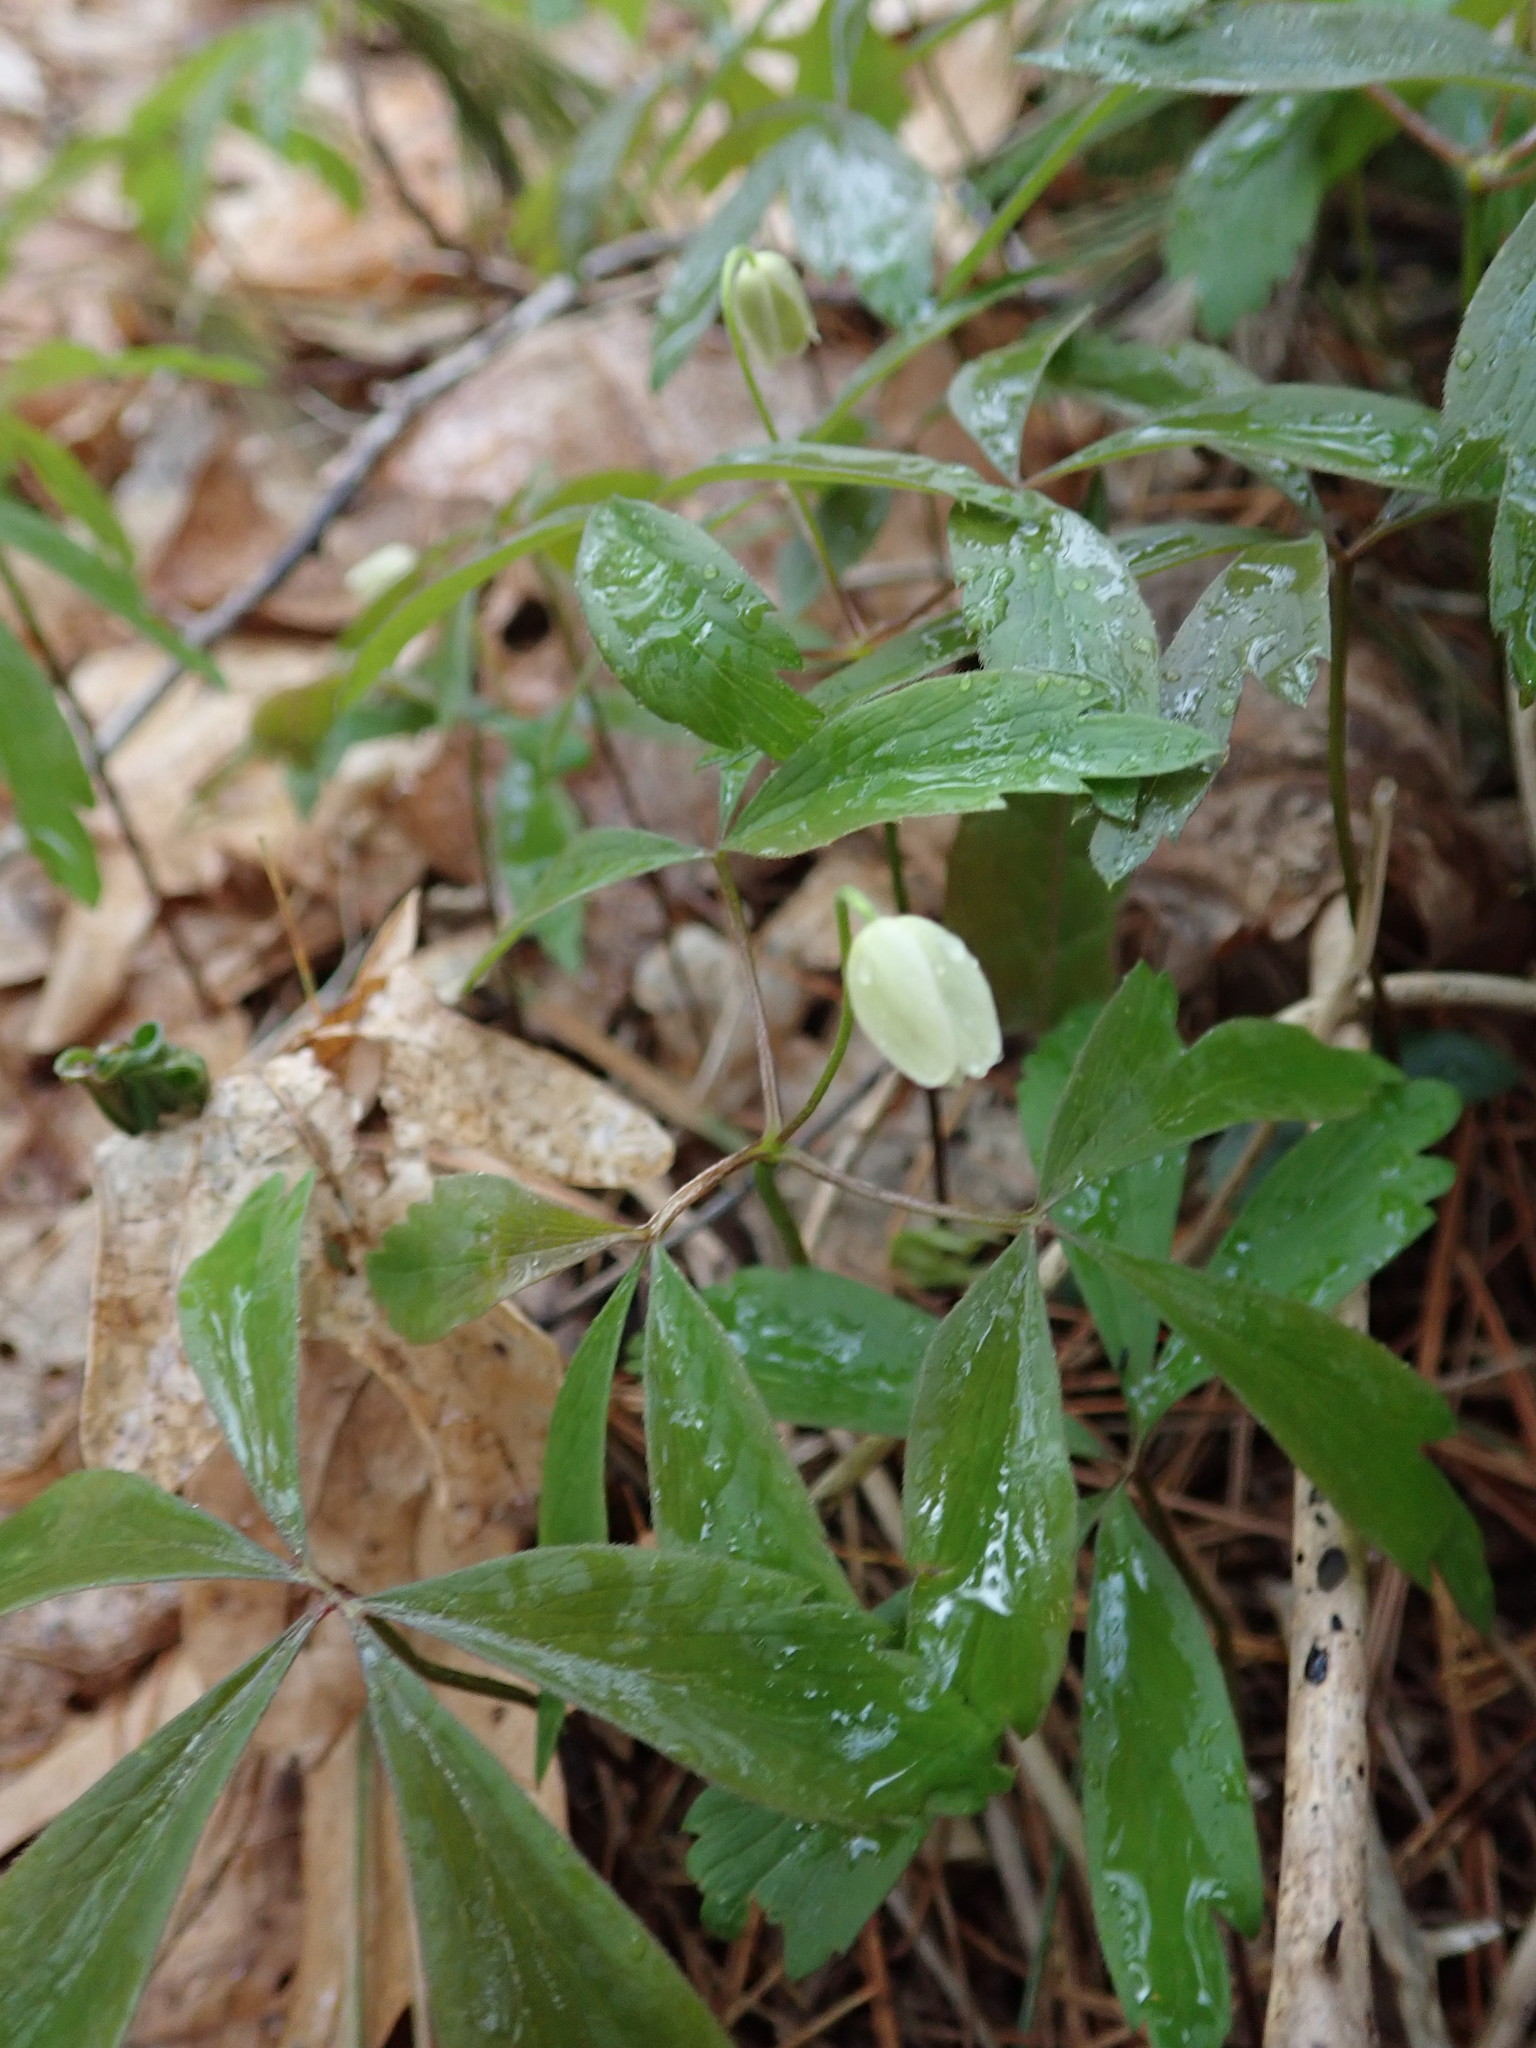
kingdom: Plantae
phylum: Tracheophyta
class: Magnoliopsida
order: Ranunculales
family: Ranunculaceae
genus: Anemone
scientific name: Anemone quinquefolia
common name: Wood anemone
